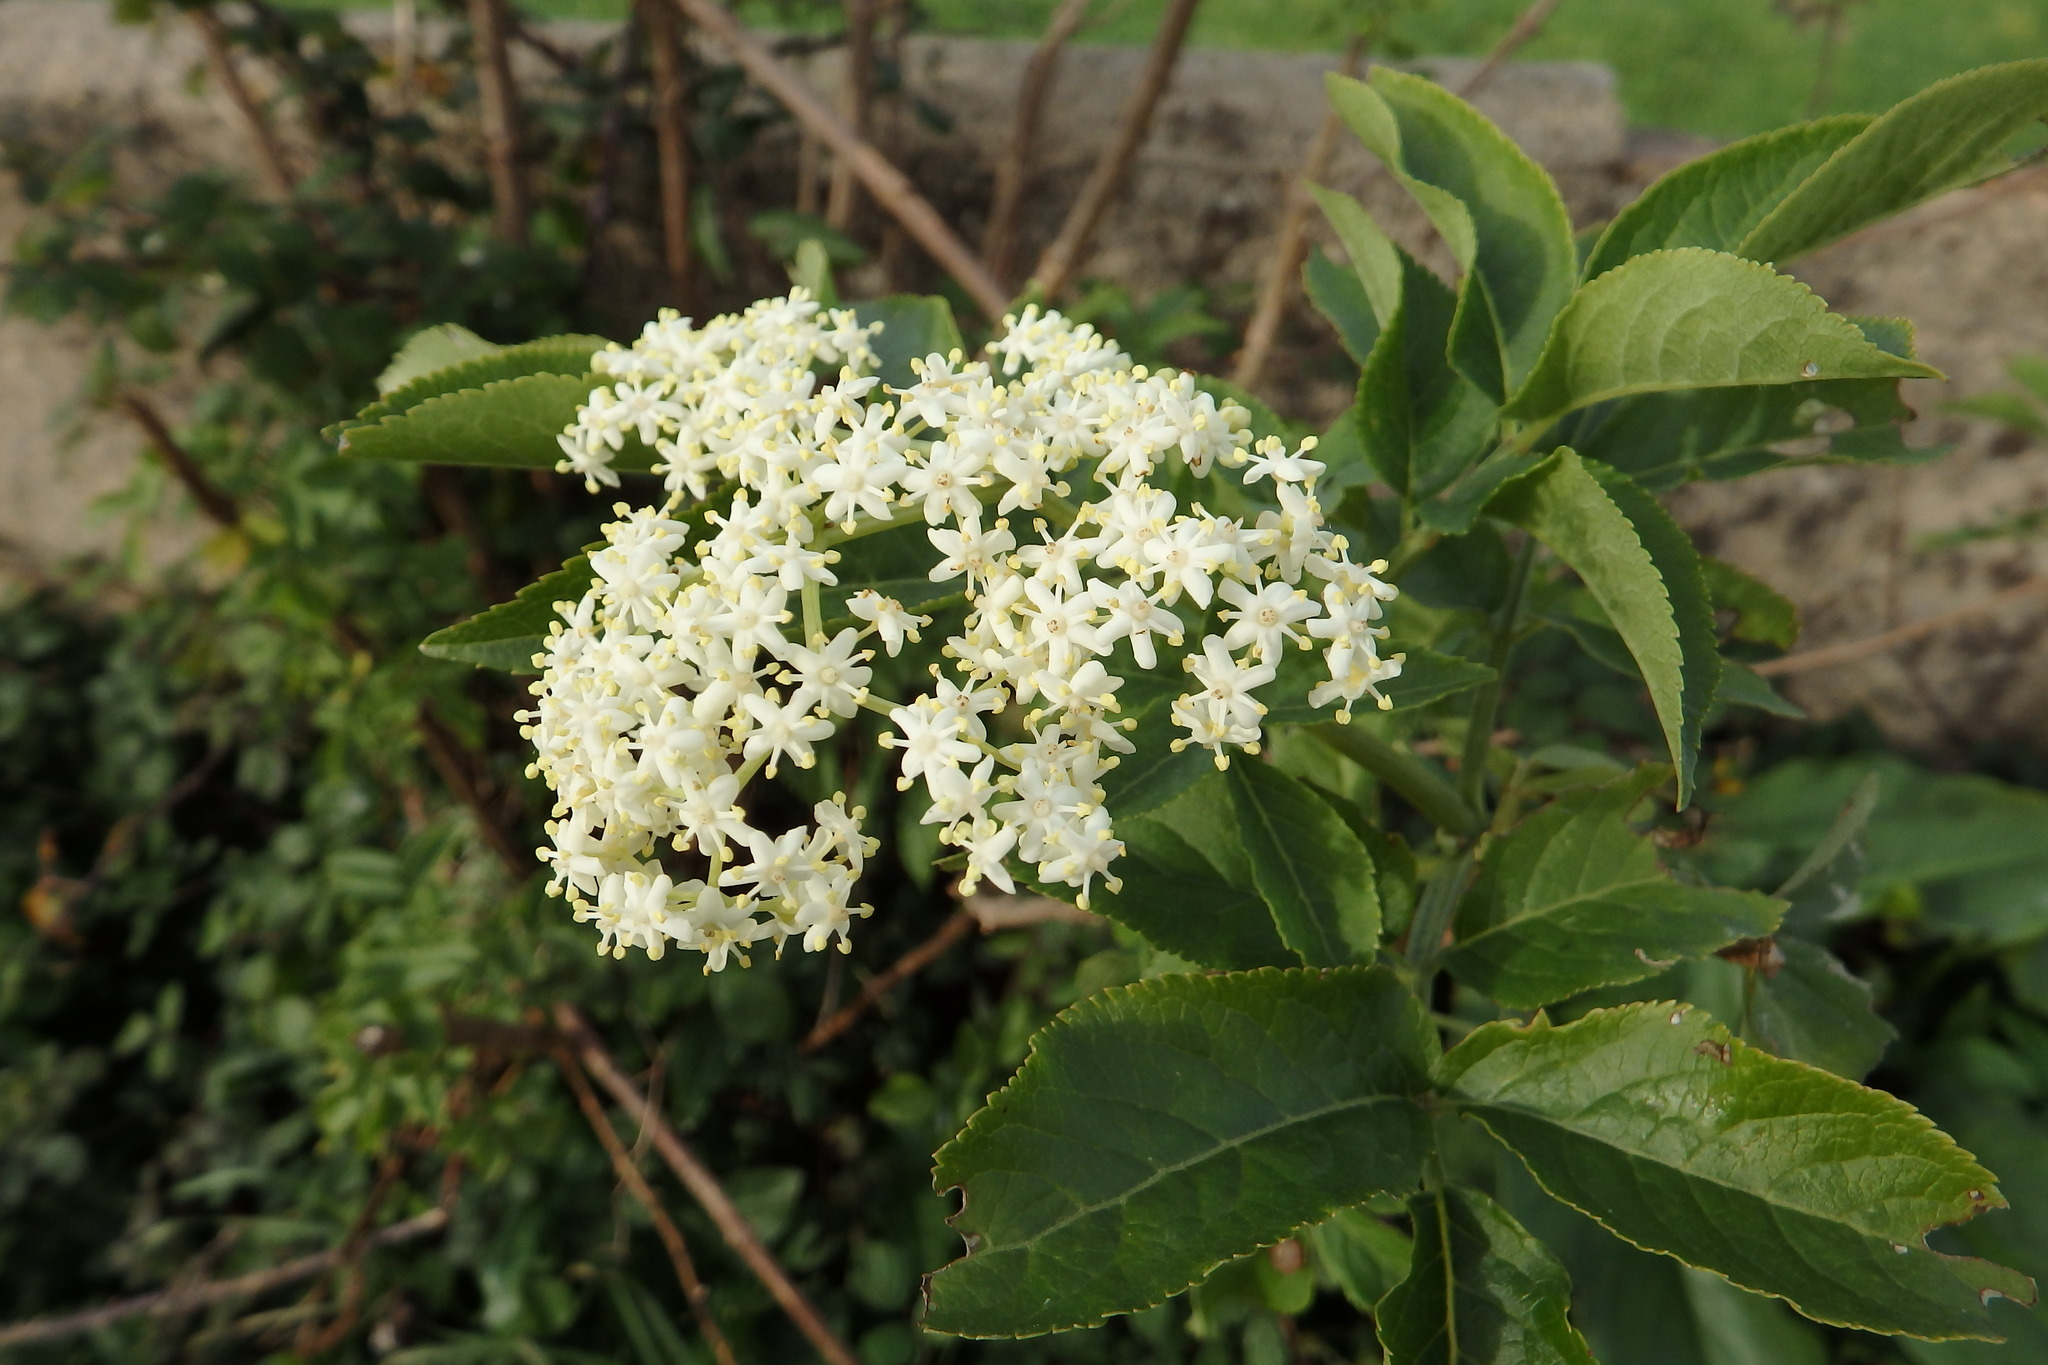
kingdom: Plantae
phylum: Tracheophyta
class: Magnoliopsida
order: Dipsacales
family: Viburnaceae
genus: Sambucus
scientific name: Sambucus nigra
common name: Elder
